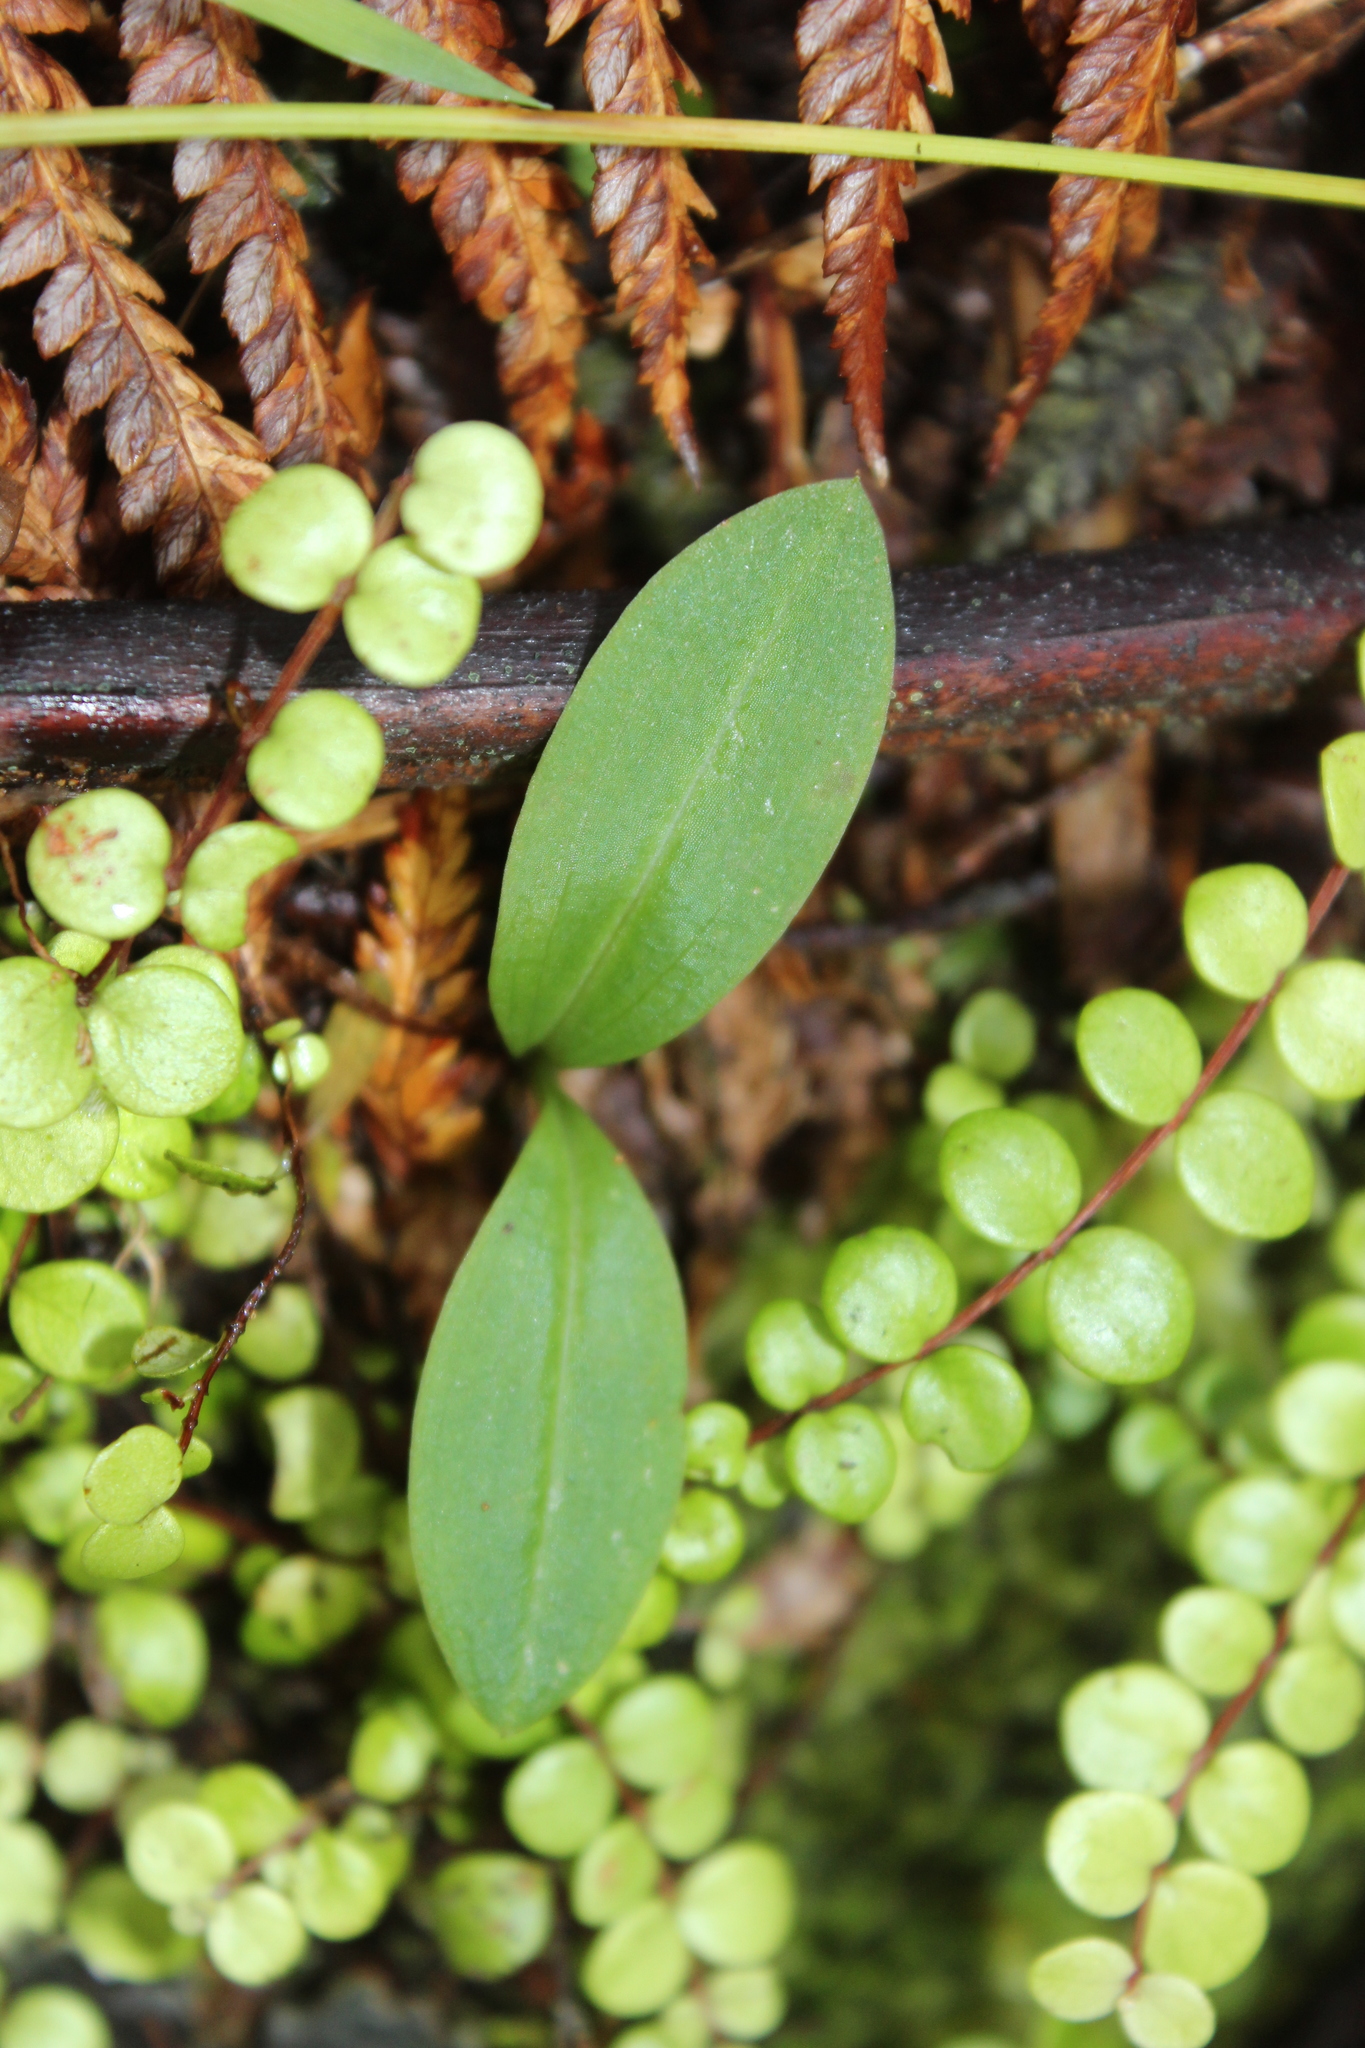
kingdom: Plantae
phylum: Tracheophyta
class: Liliopsida
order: Asparagales
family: Orchidaceae
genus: Chiloglottis
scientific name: Chiloglottis cornuta
